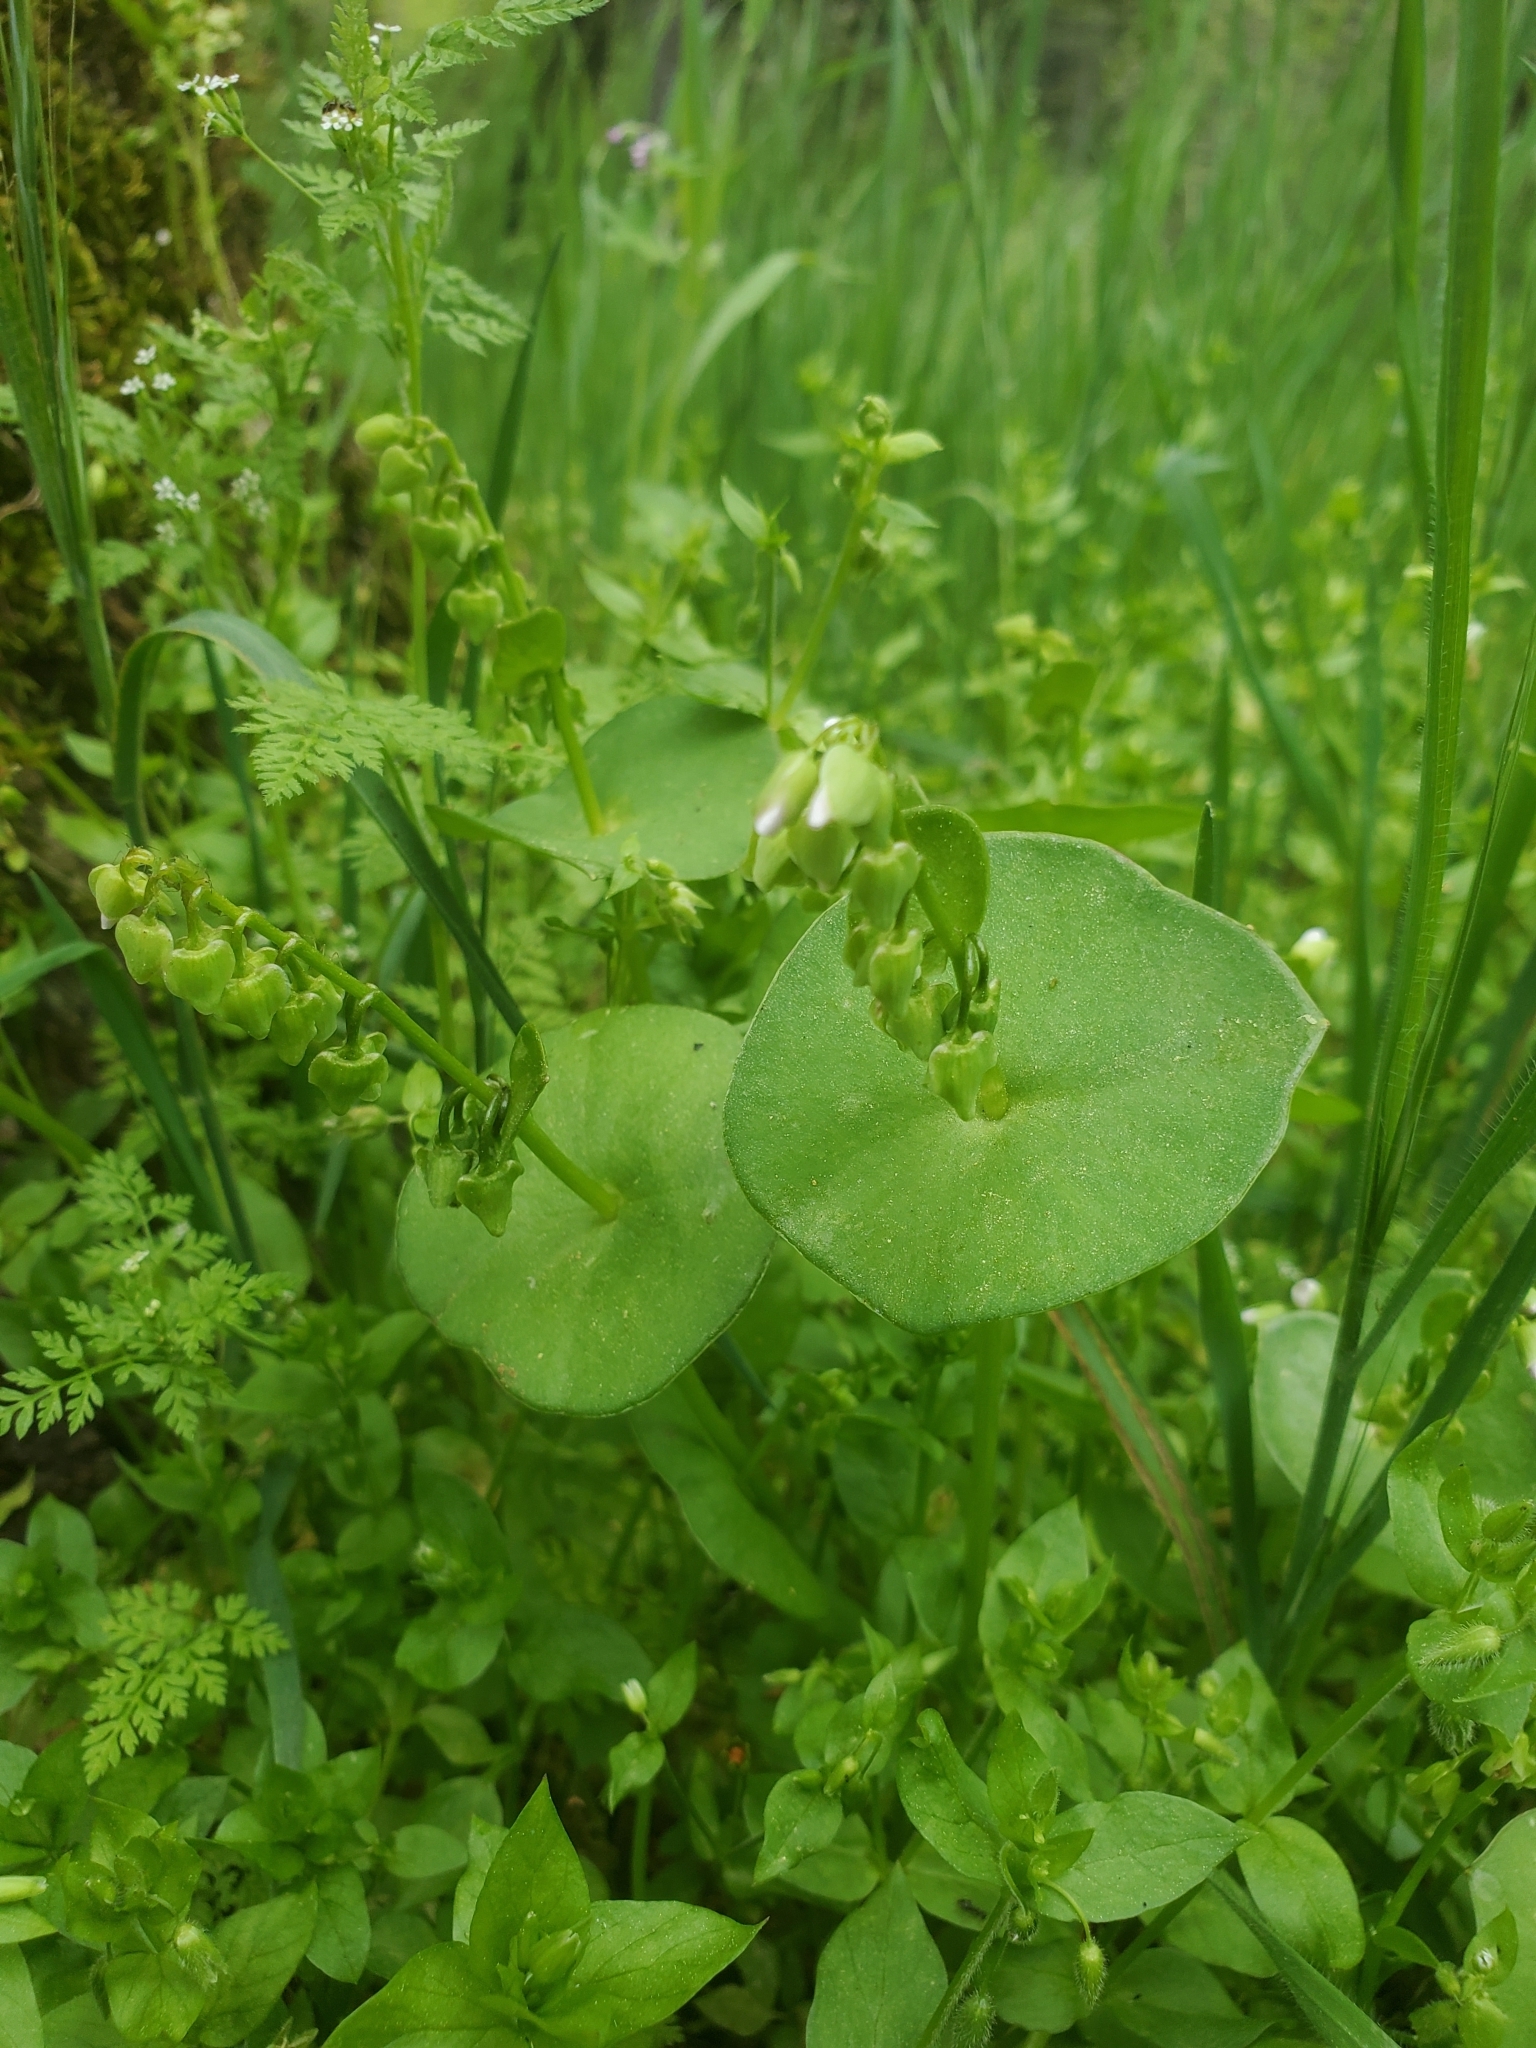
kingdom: Plantae
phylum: Tracheophyta
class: Magnoliopsida
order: Caryophyllales
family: Montiaceae
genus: Claytonia
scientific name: Claytonia perfoliata
